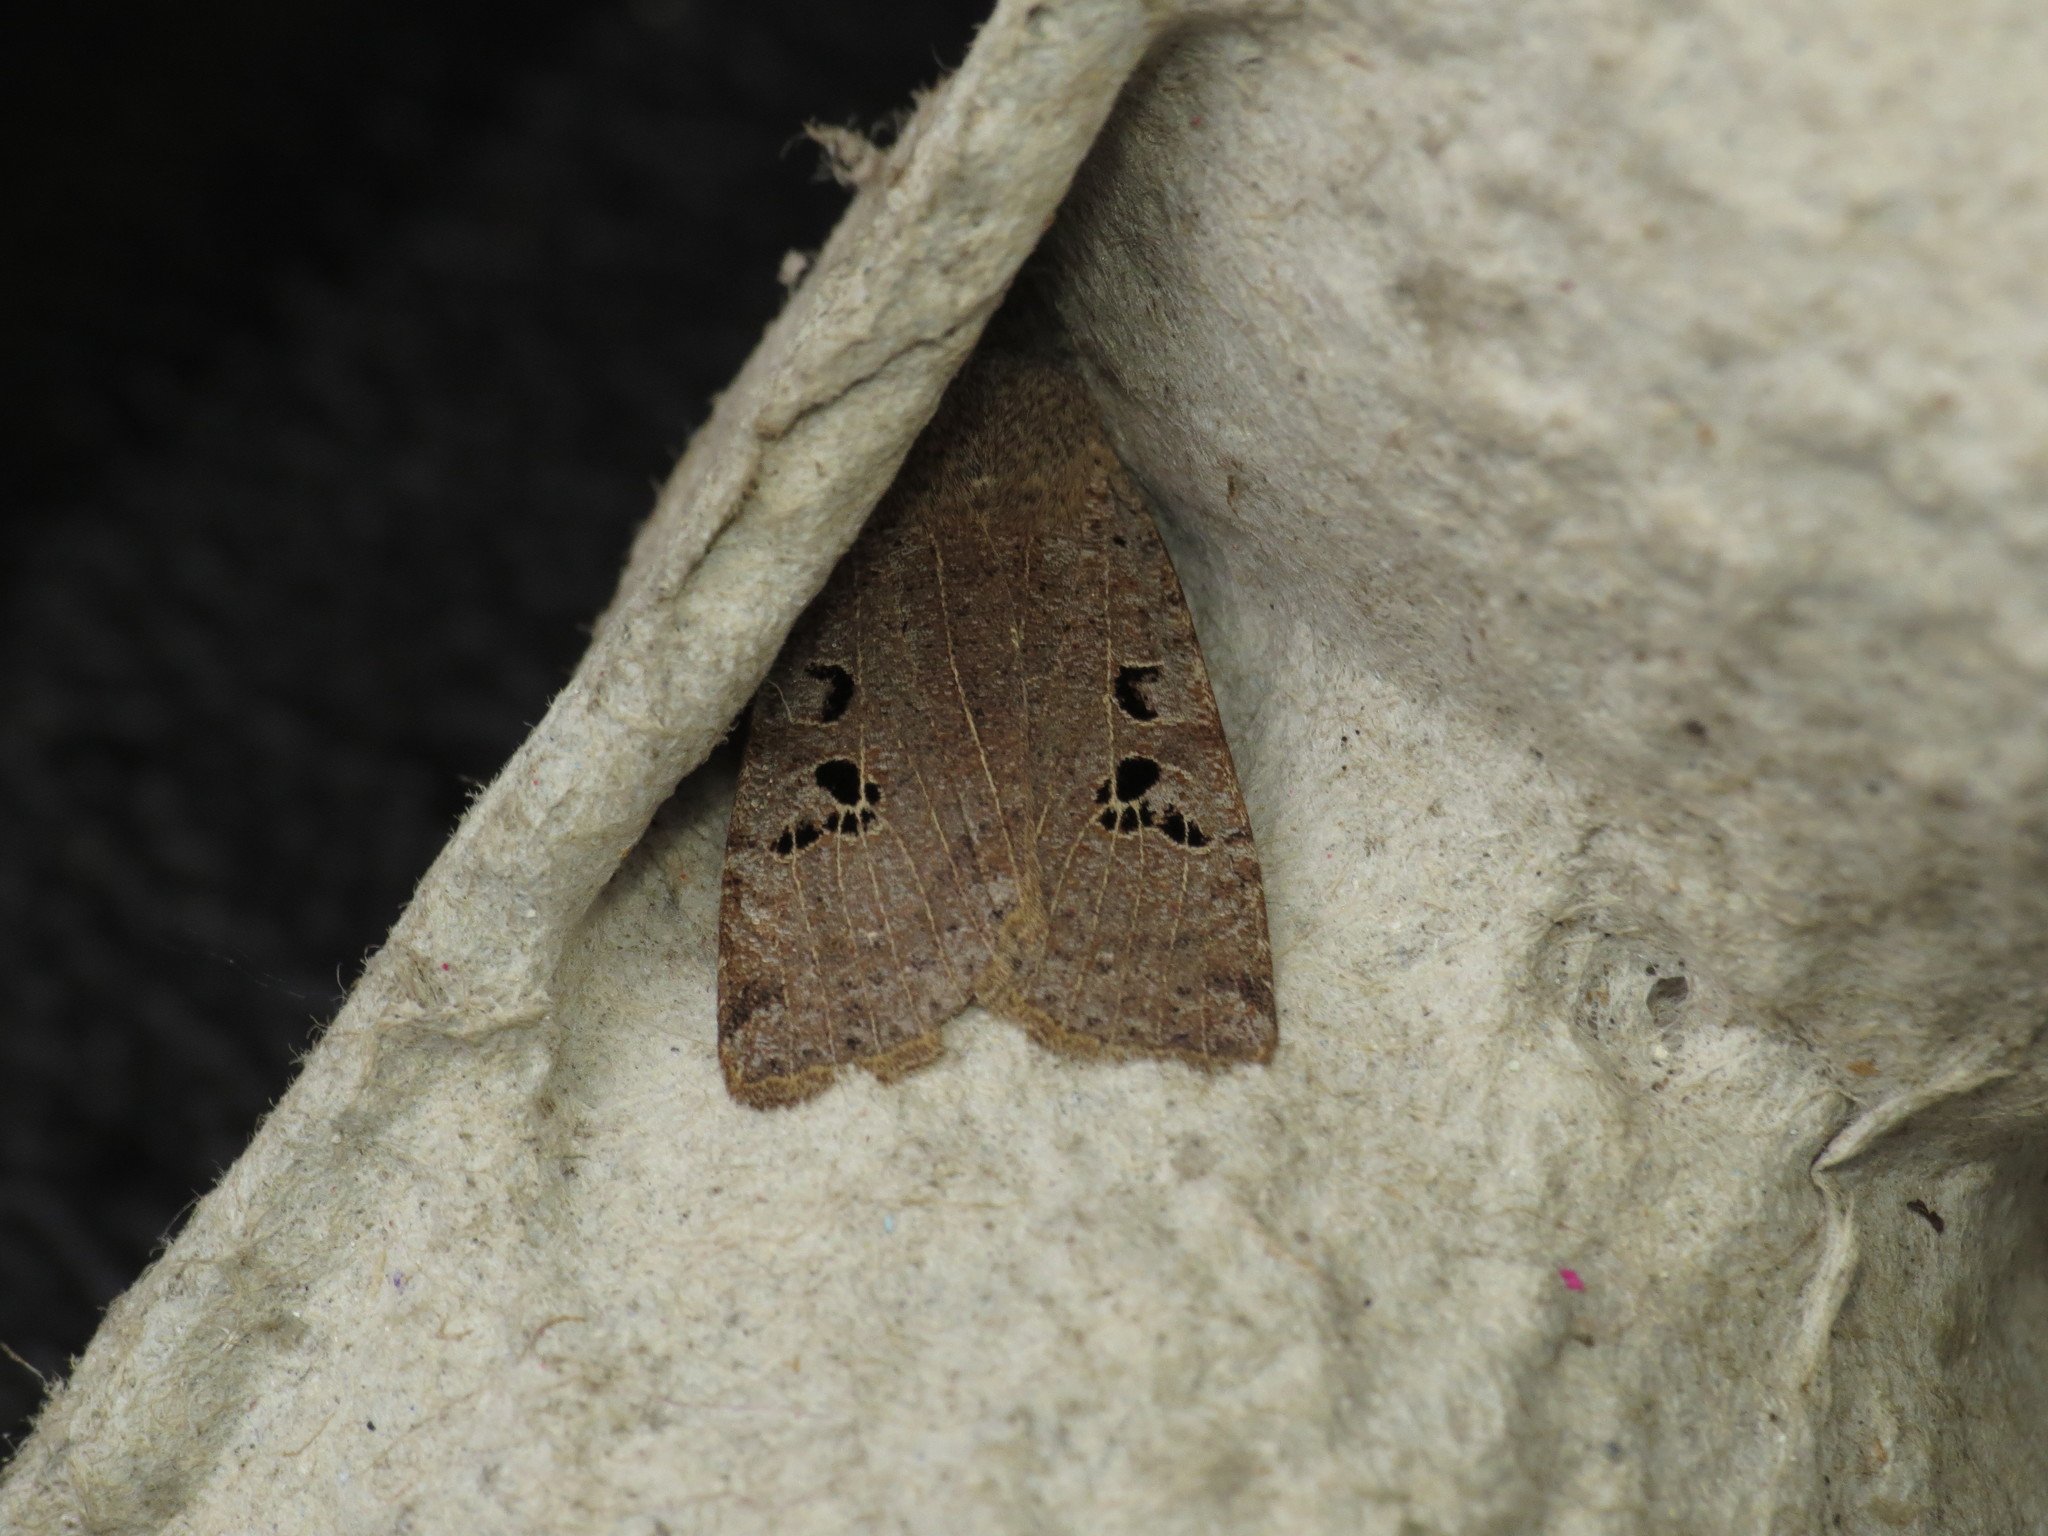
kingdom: Animalia
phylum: Arthropoda
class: Insecta
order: Lepidoptera
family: Noctuidae
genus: Conistra
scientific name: Conistra rubiginosa
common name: Black-spotted chestnut
